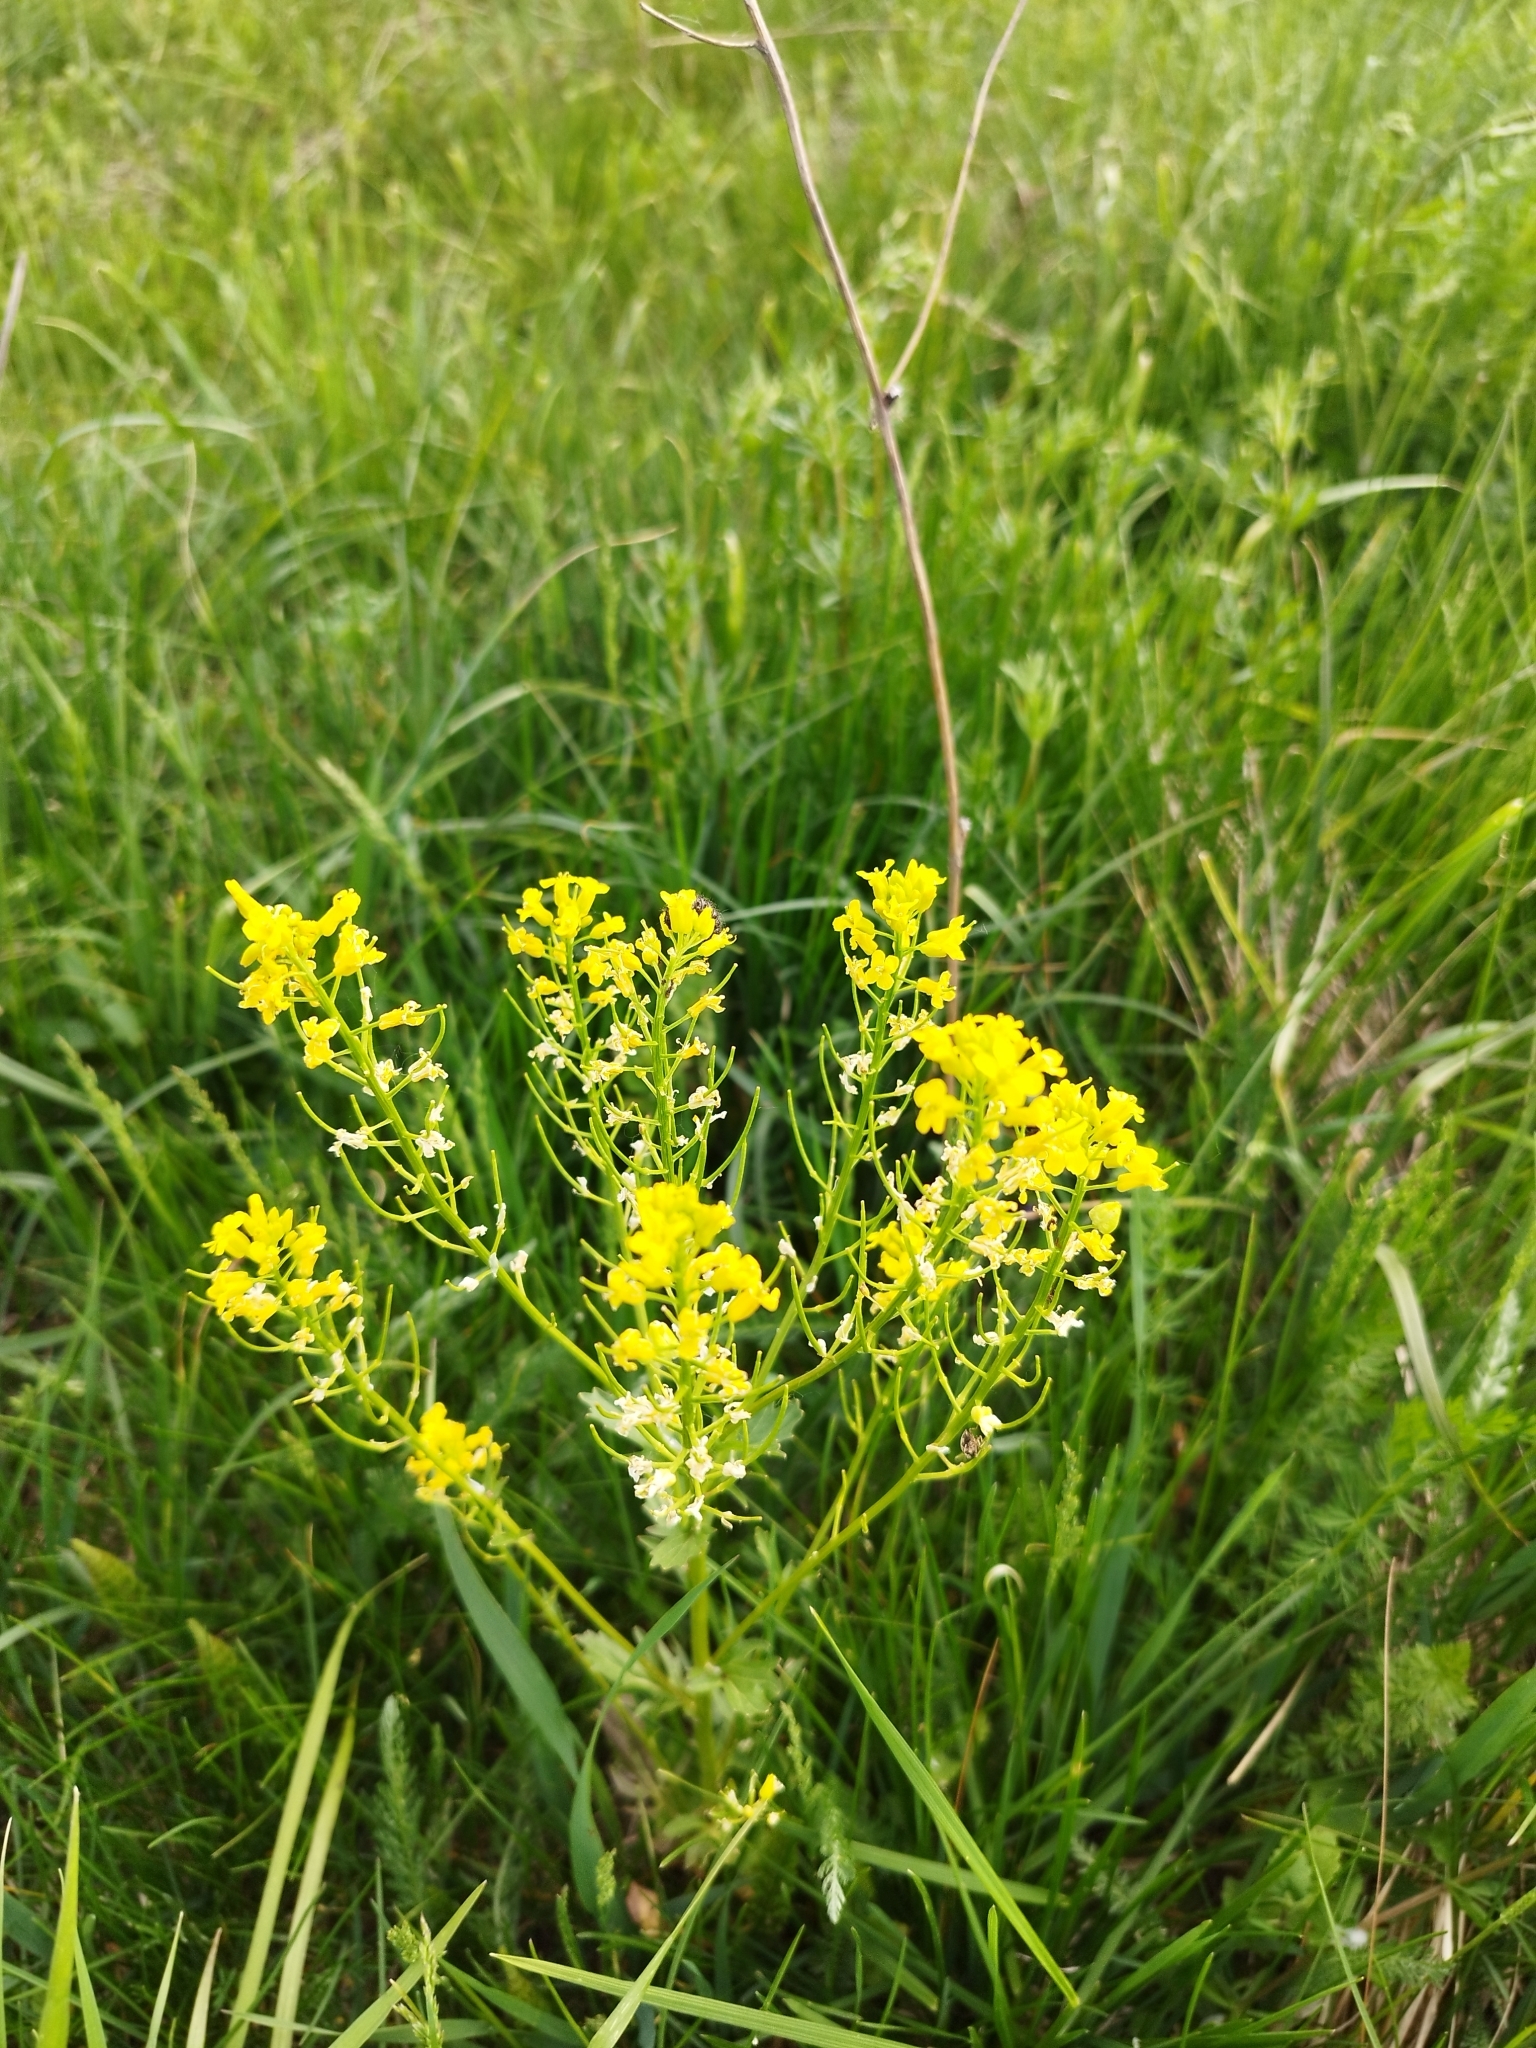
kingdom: Plantae
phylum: Tracheophyta
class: Magnoliopsida
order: Brassicales
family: Brassicaceae
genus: Barbarea
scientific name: Barbarea vulgaris
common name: Cressy-greens
